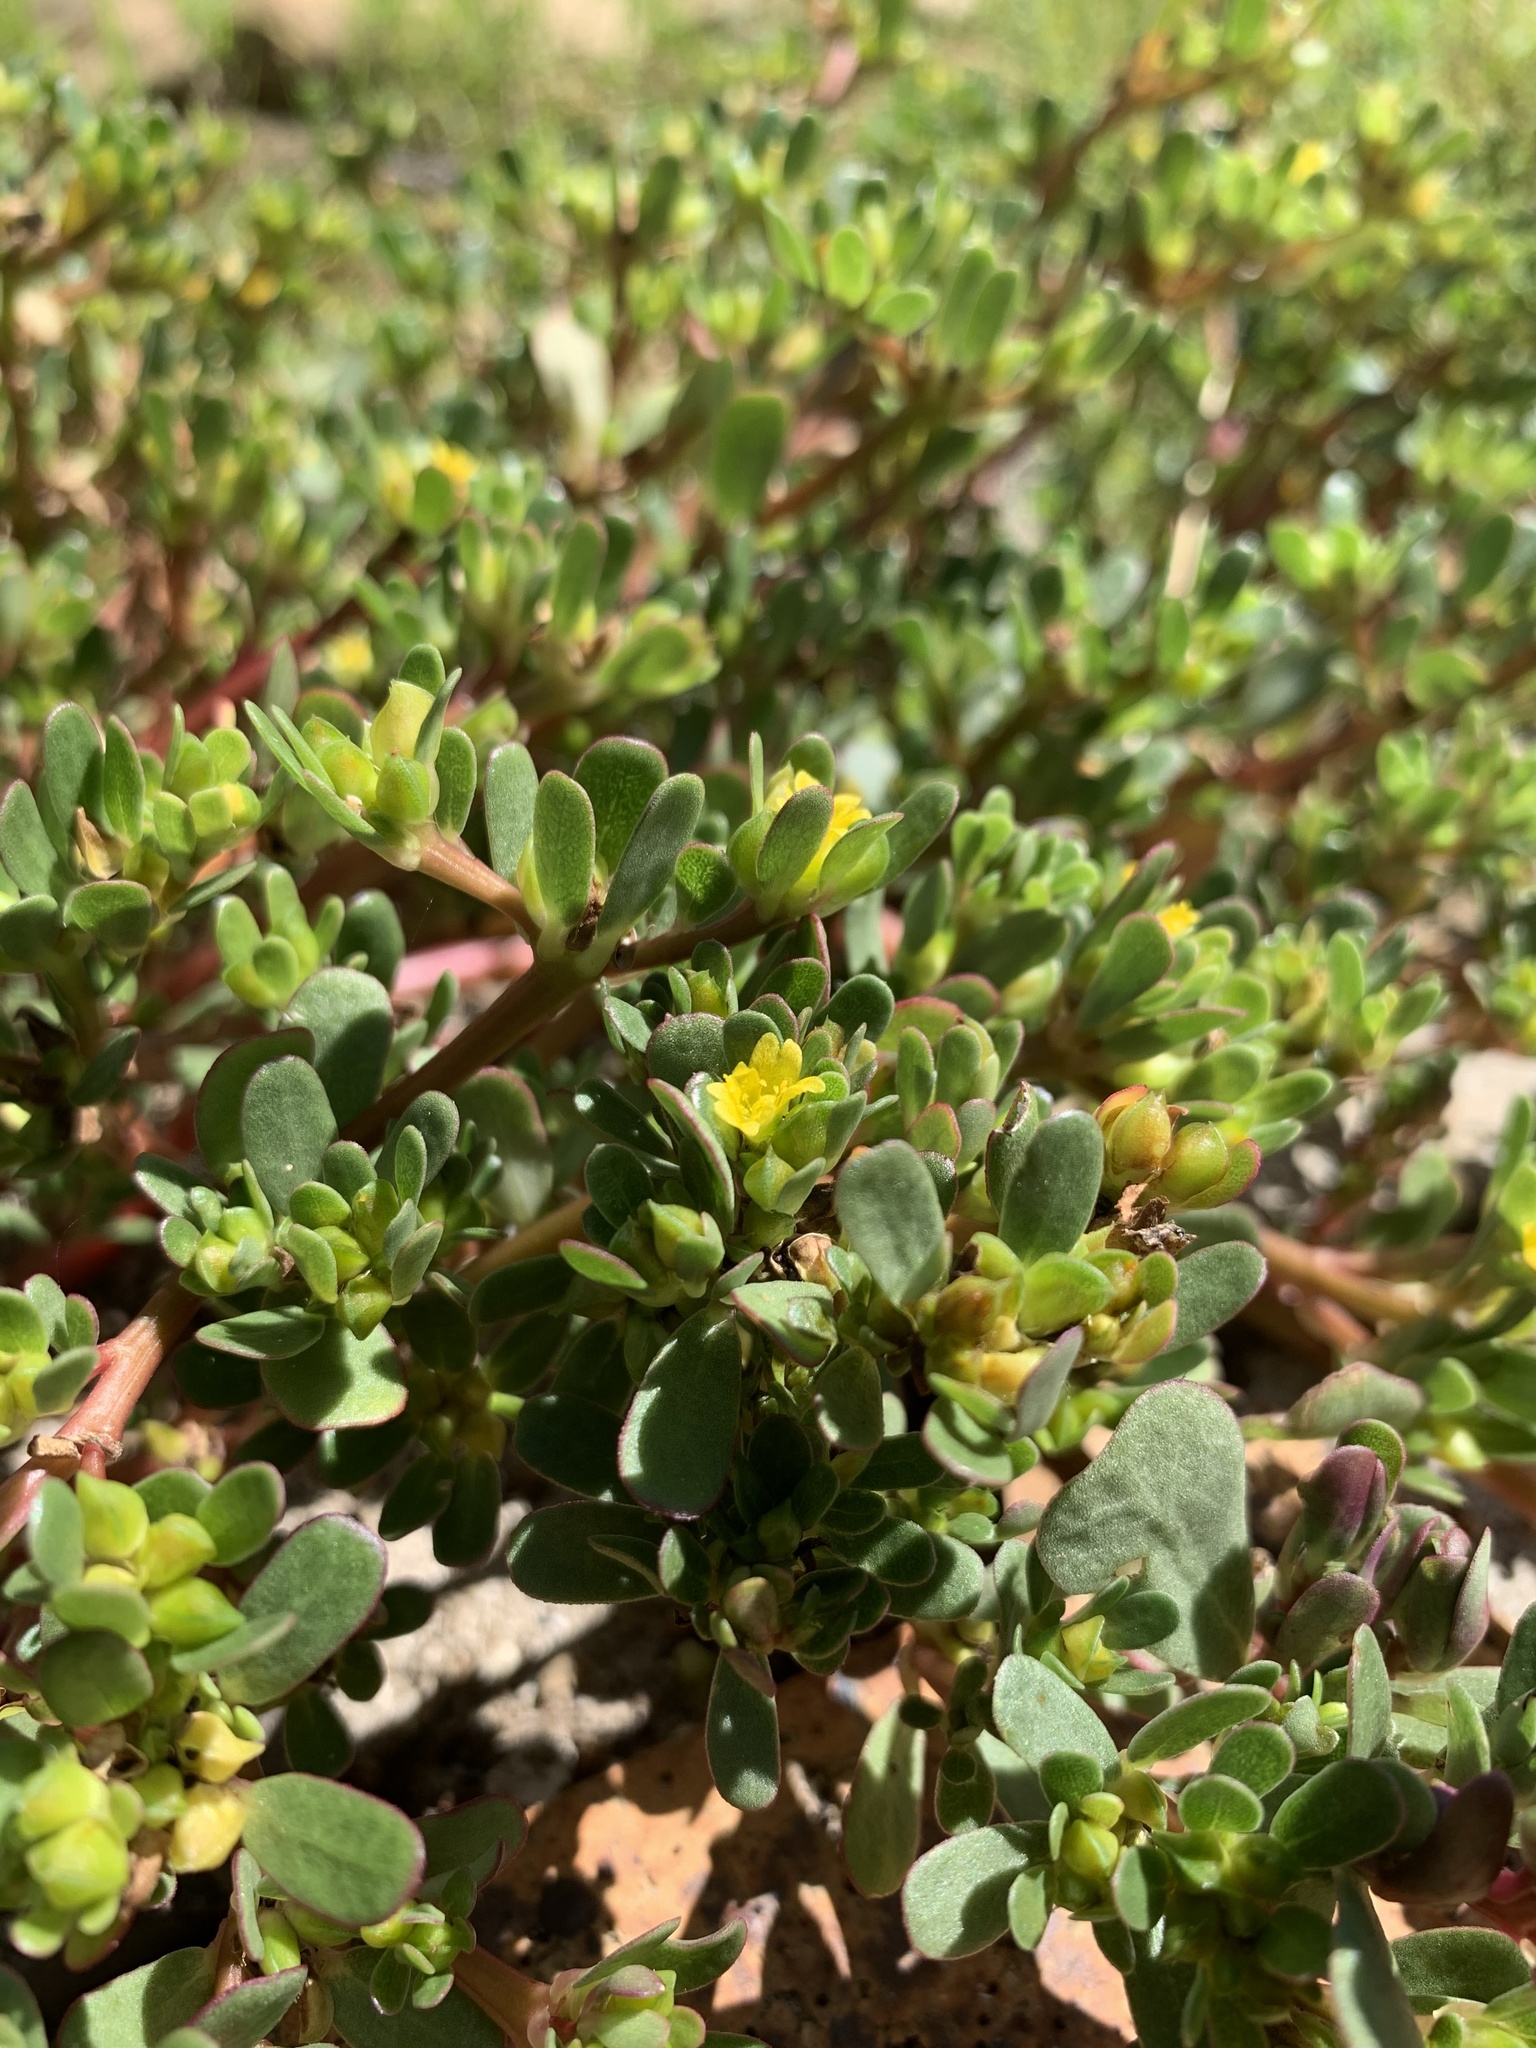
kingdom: Plantae
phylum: Tracheophyta
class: Magnoliopsida
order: Caryophyllales
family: Portulacaceae
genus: Portulaca
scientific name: Portulaca oleracea
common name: Common purslane
